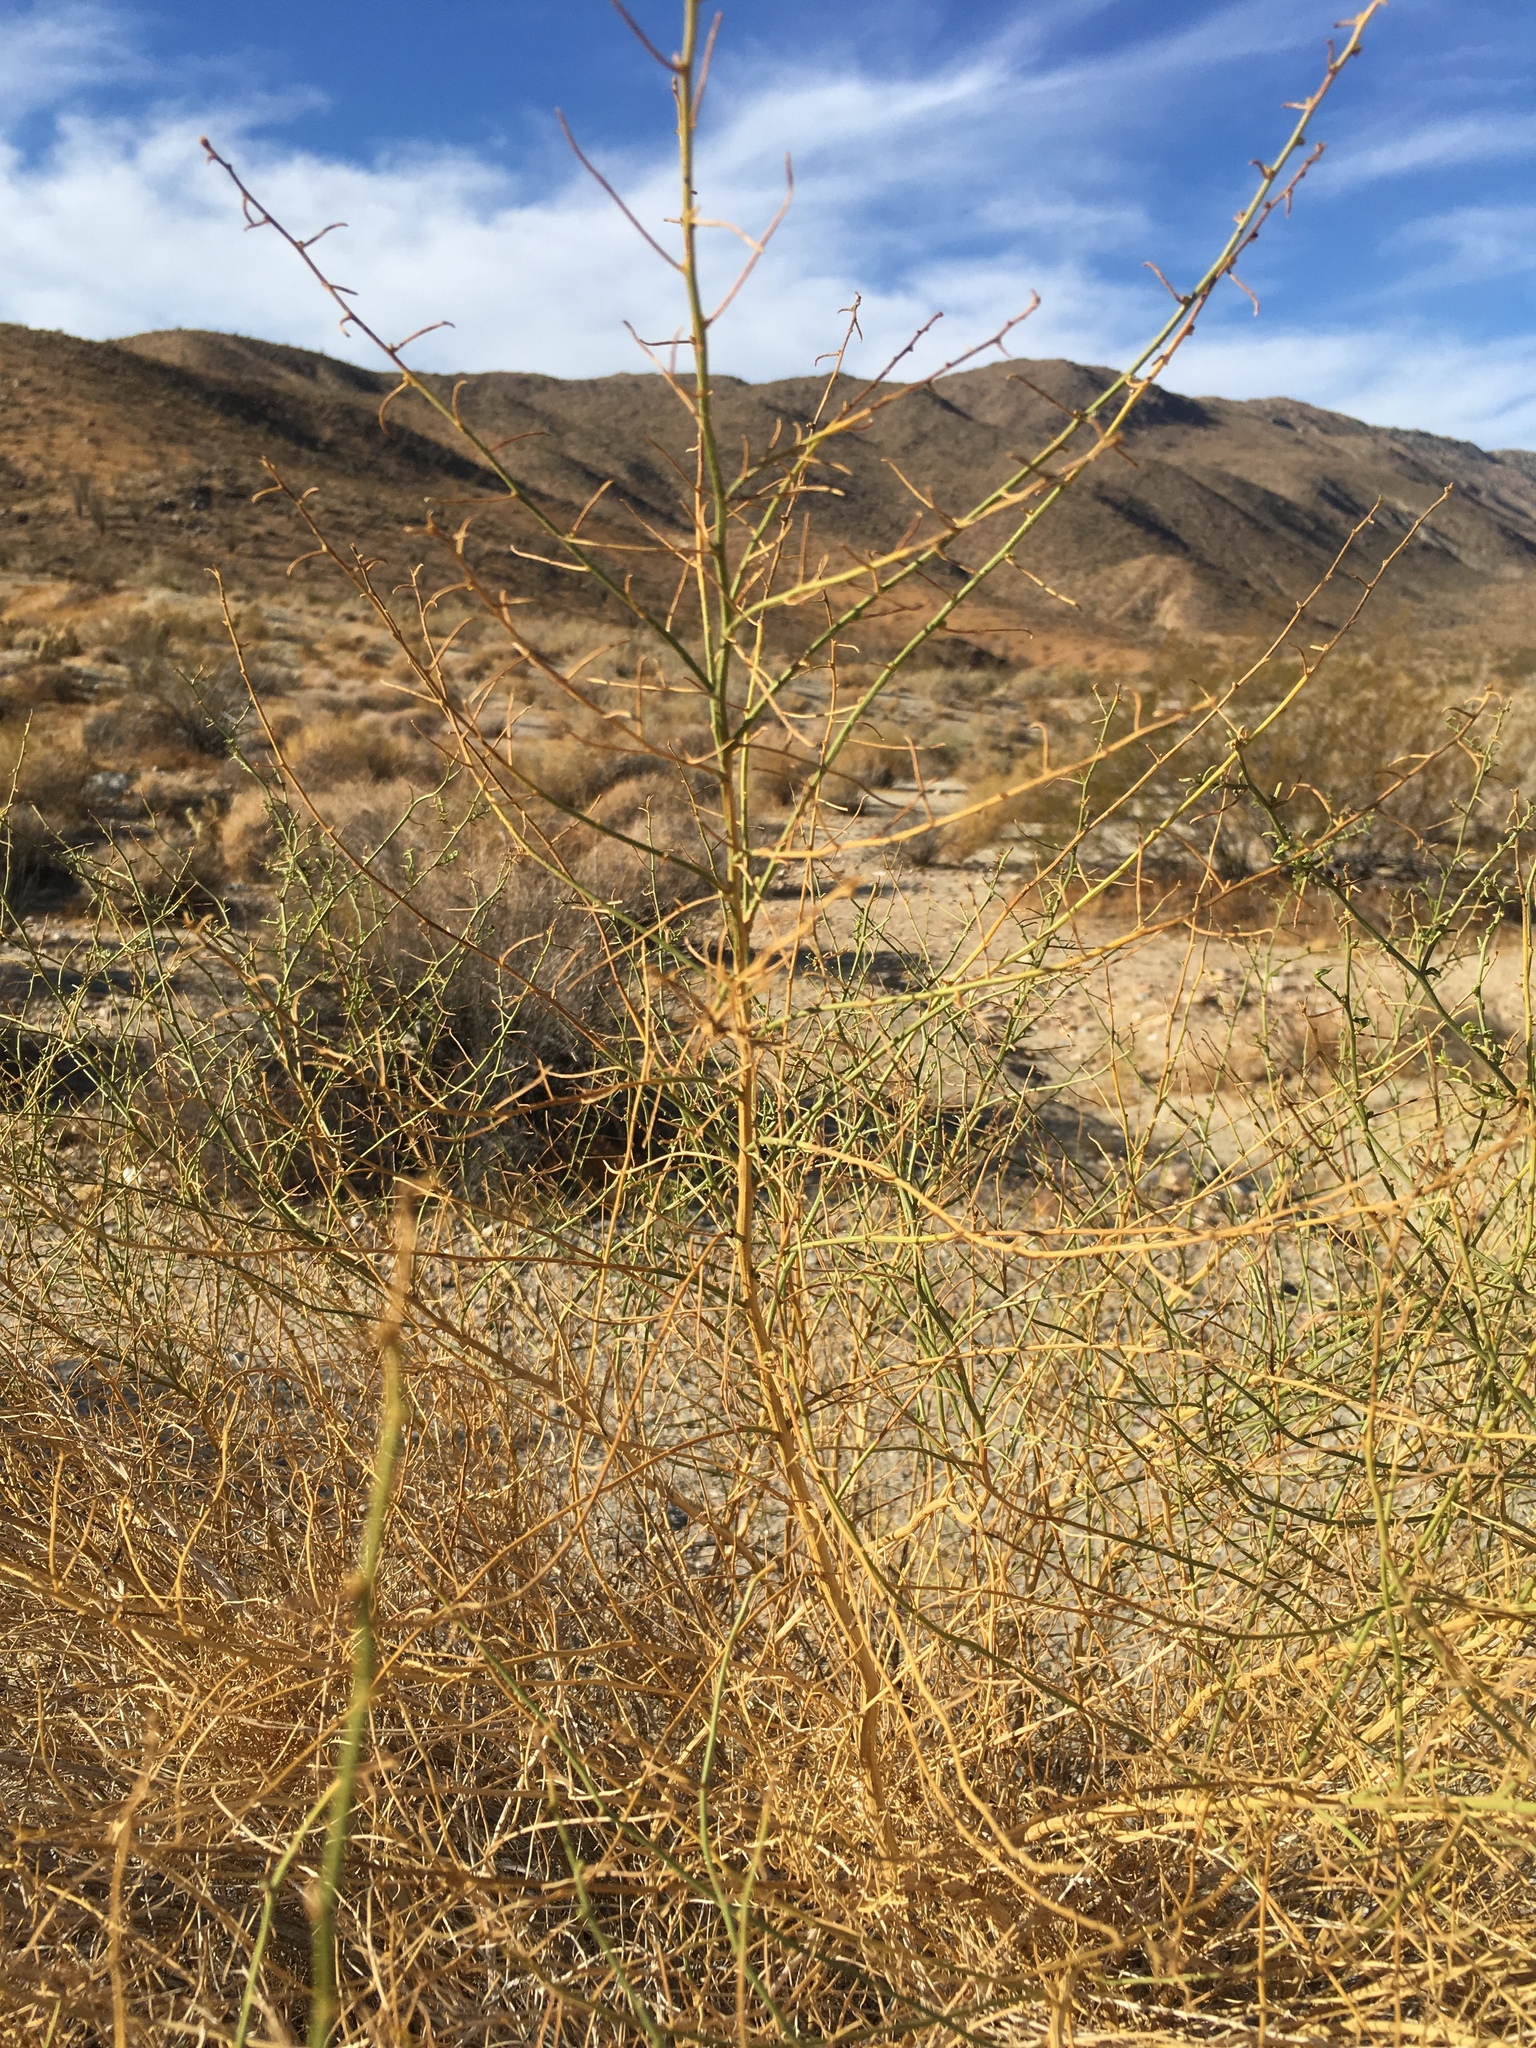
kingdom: Plantae
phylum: Tracheophyta
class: Magnoliopsida
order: Asterales
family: Asteraceae
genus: Ambrosia
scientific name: Ambrosia salsola
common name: Burrobrush
